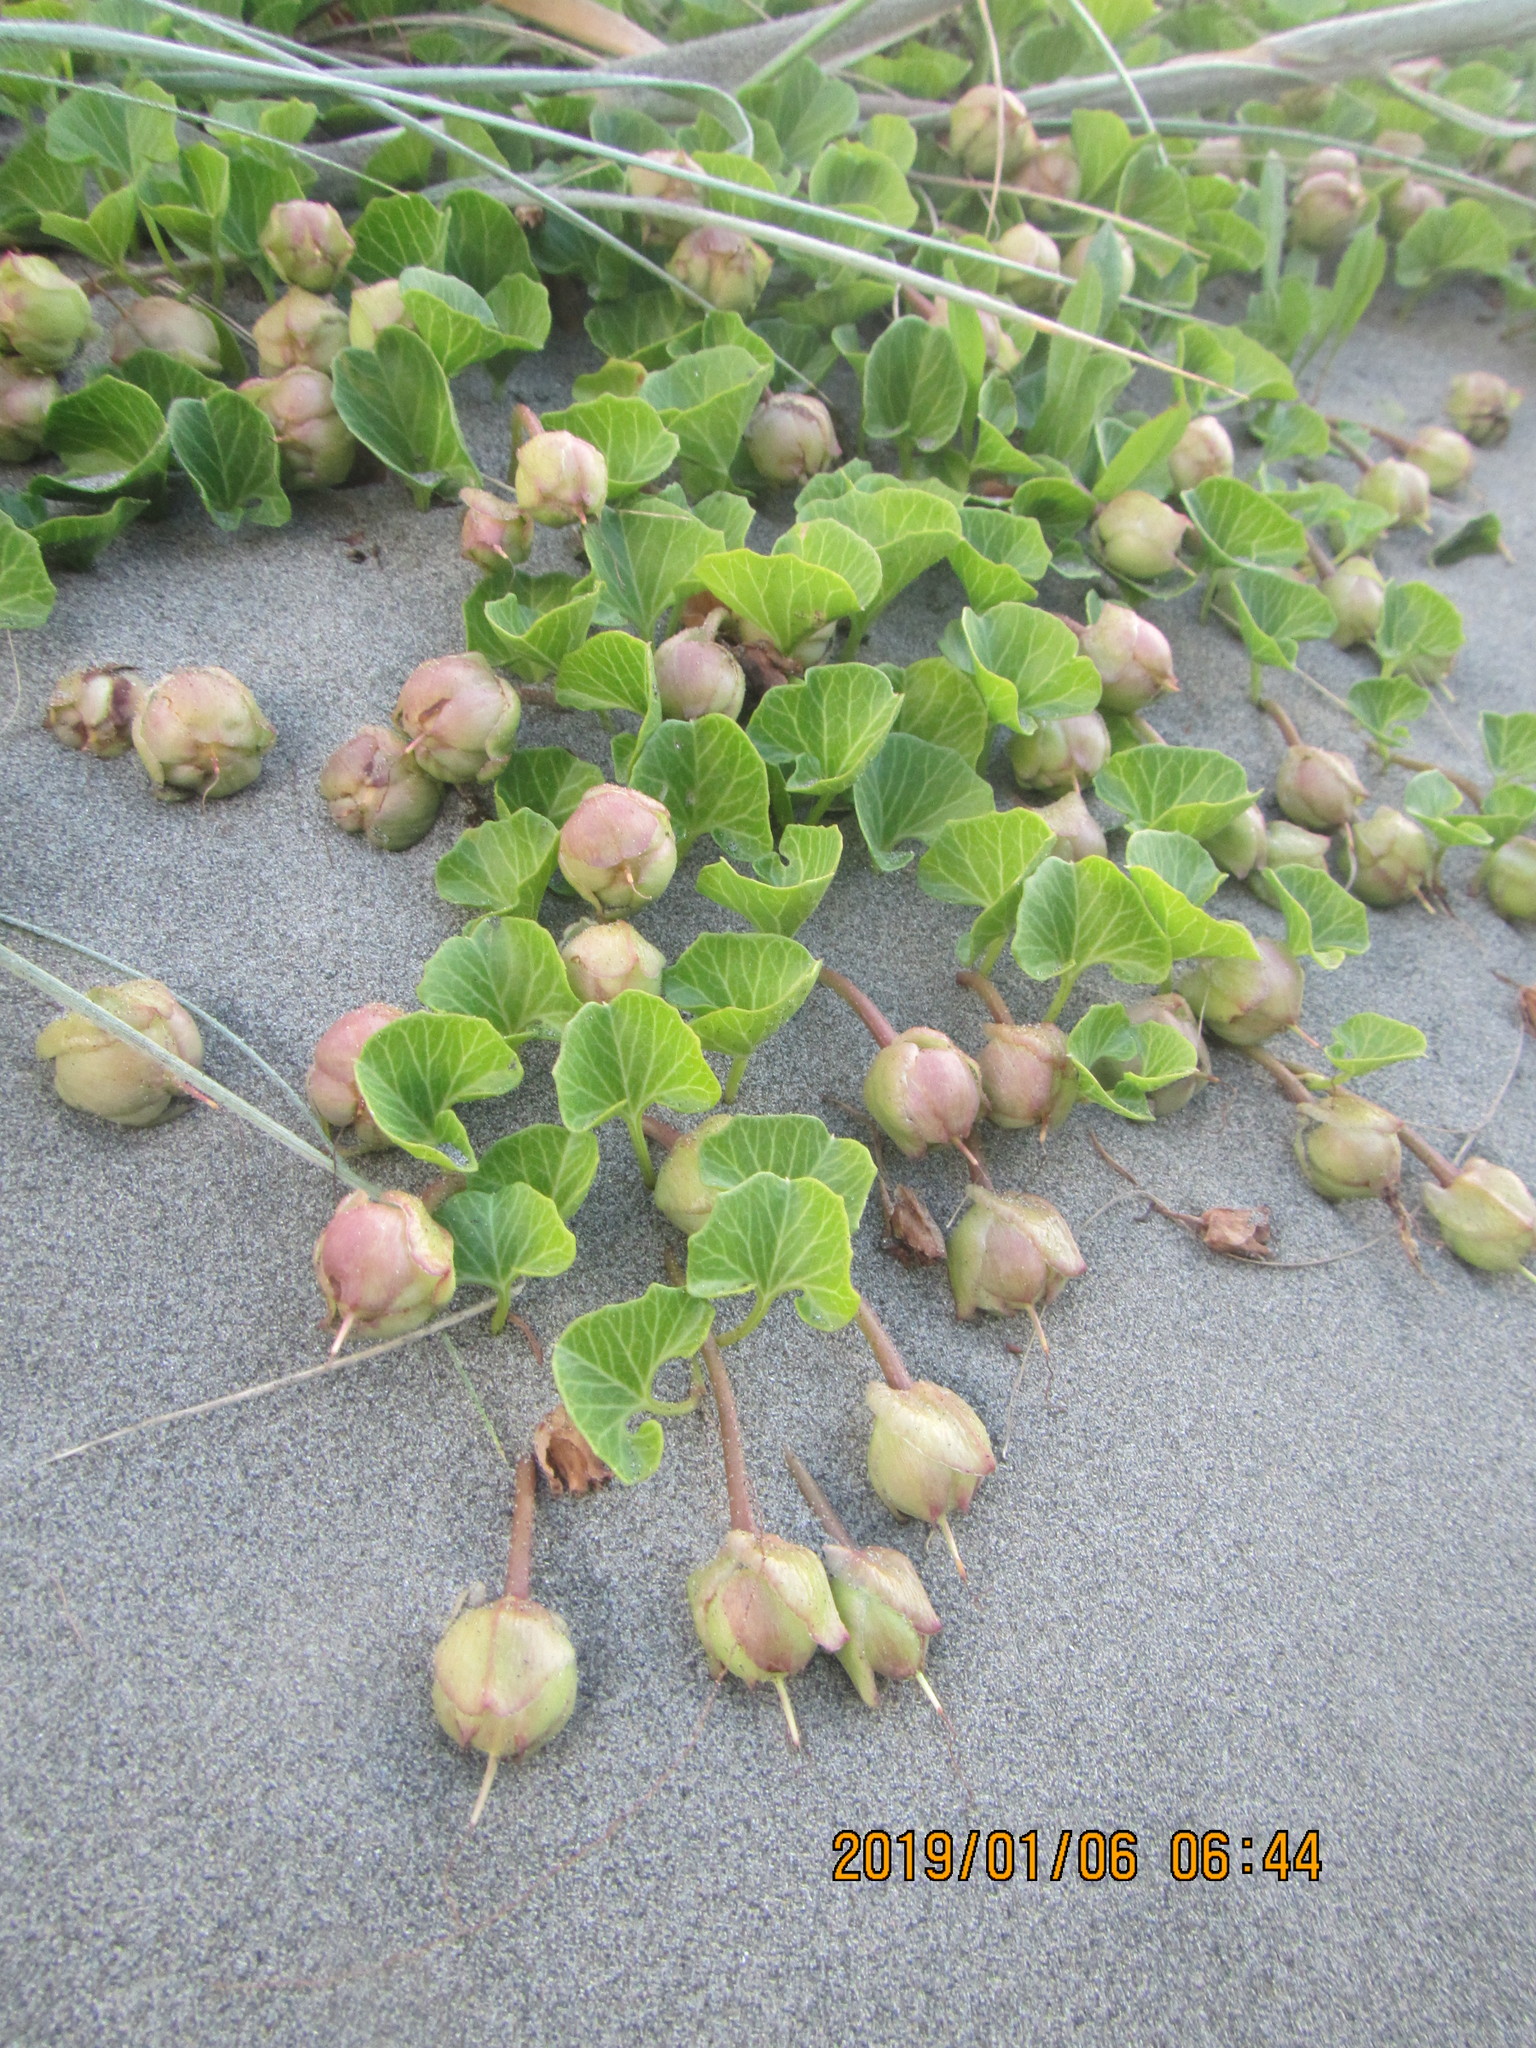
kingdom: Plantae
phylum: Tracheophyta
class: Magnoliopsida
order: Solanales
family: Convolvulaceae
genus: Calystegia
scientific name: Calystegia soldanella
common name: Sea bindweed
